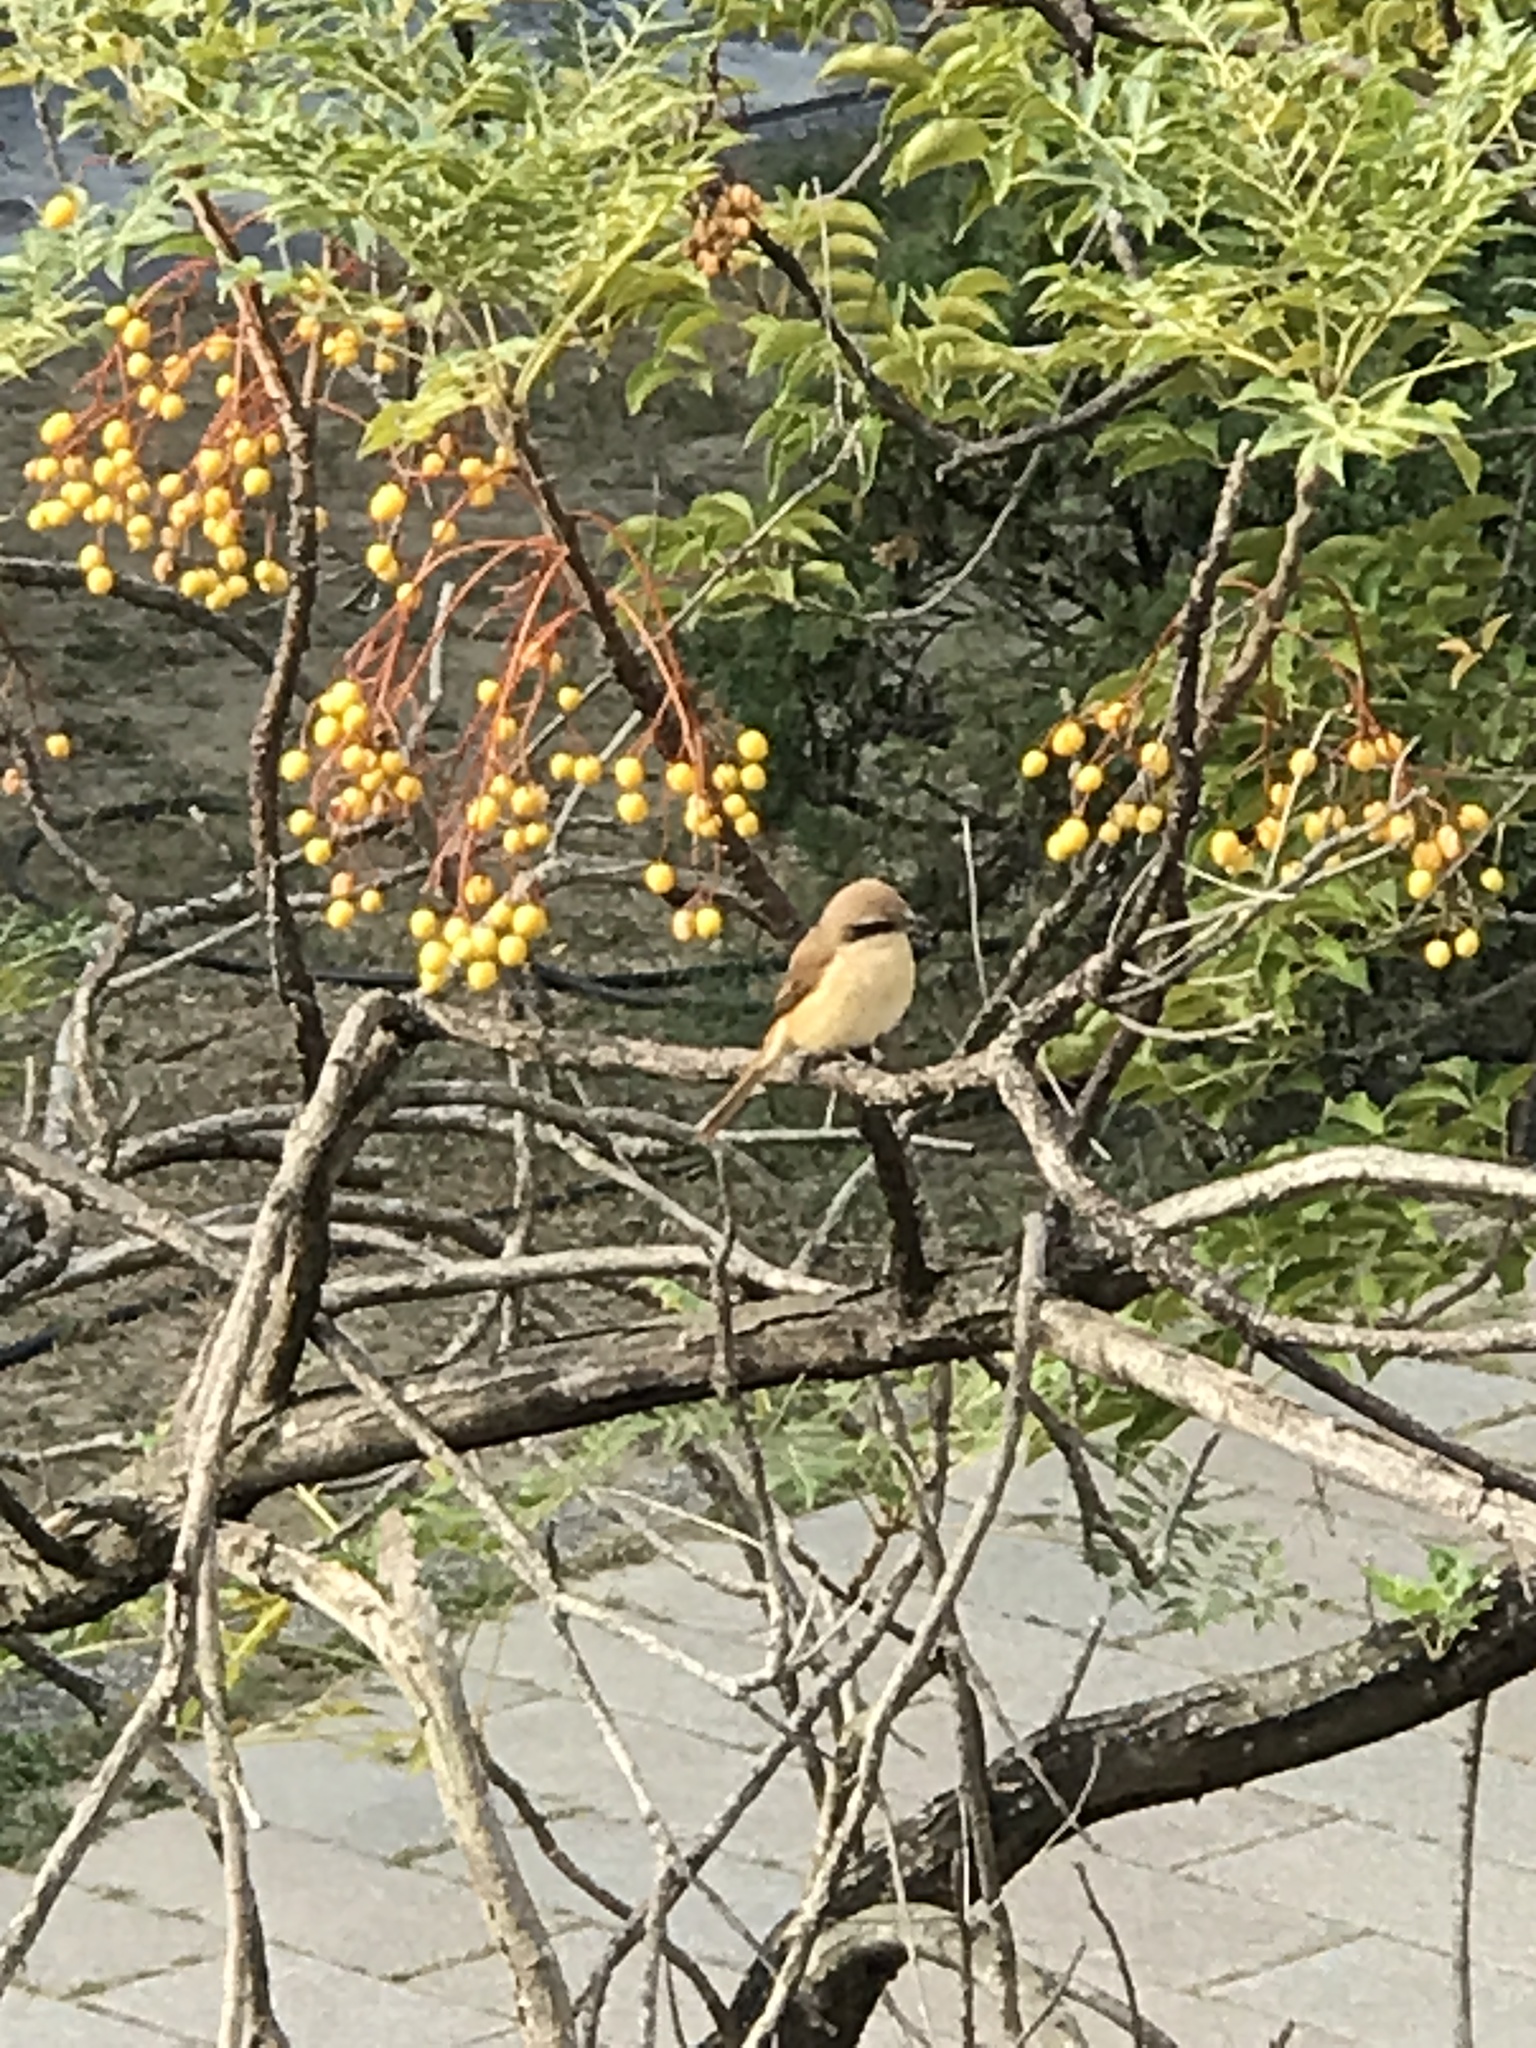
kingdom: Animalia
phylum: Chordata
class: Aves
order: Passeriformes
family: Laniidae
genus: Lanius
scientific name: Lanius cristatus
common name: Brown shrike
